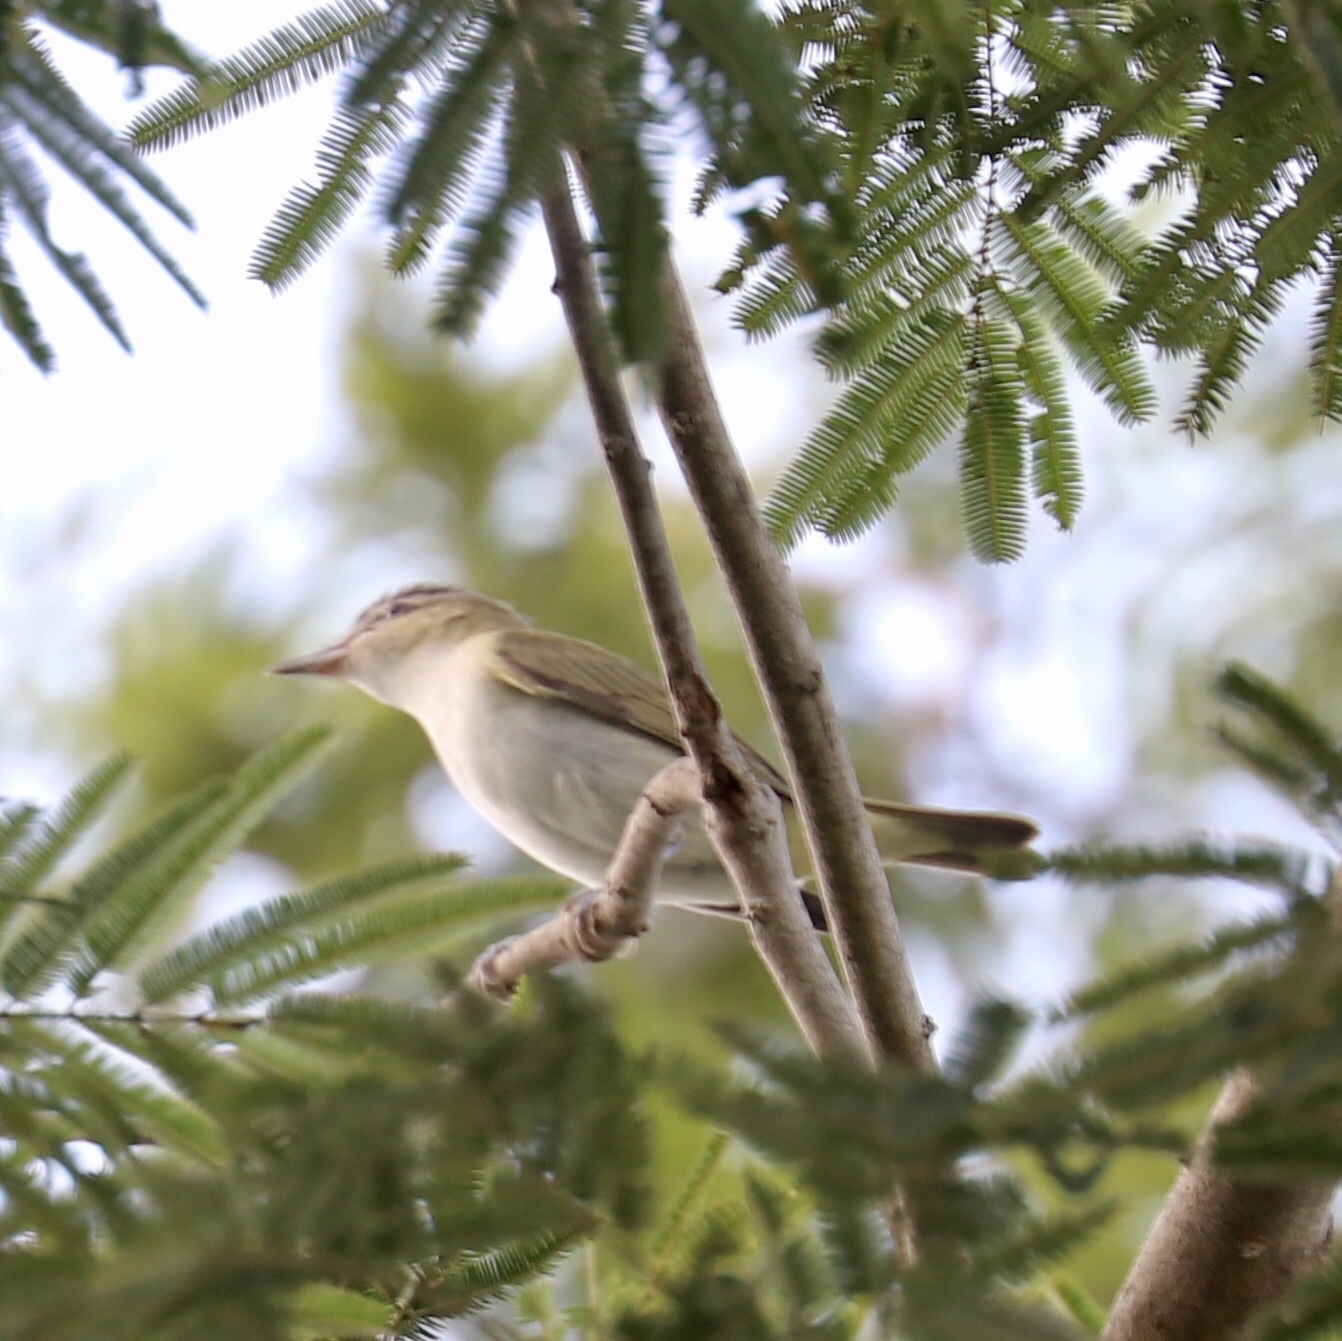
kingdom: Animalia
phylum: Chordata
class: Aves
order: Passeriformes
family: Vireonidae
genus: Vireo
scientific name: Vireo flavoviridis
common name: Yellow-green vireo
